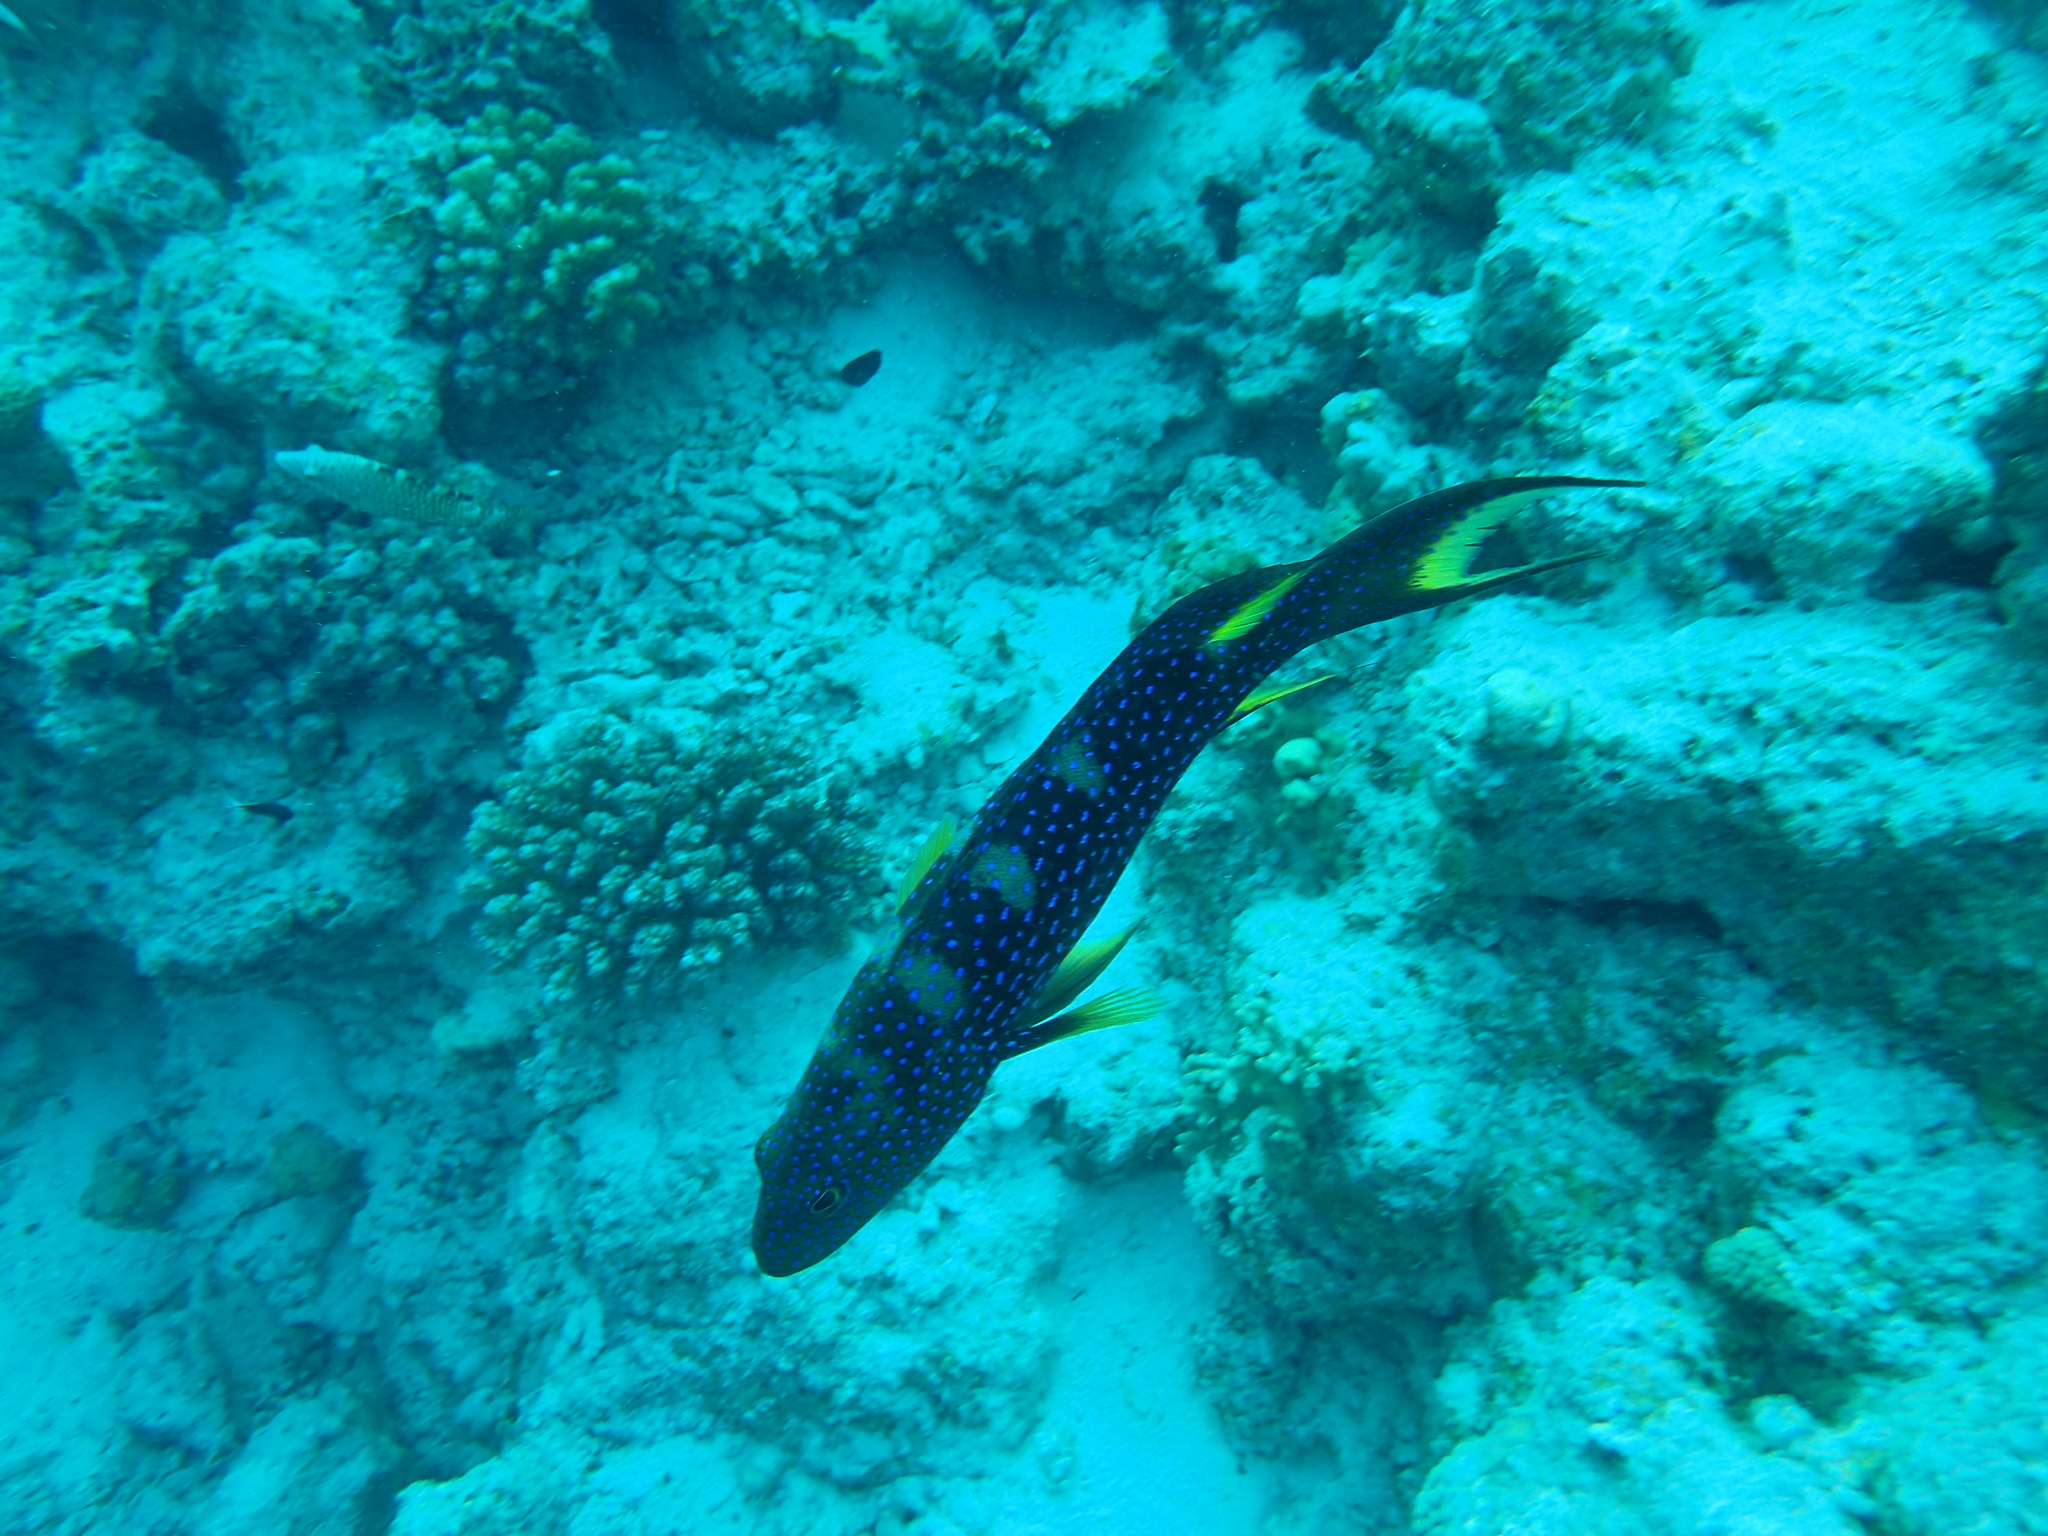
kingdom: Animalia
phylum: Chordata
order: Perciformes
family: Serranidae
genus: Variola
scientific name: Variola louti
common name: Yellow-edged lyretail
